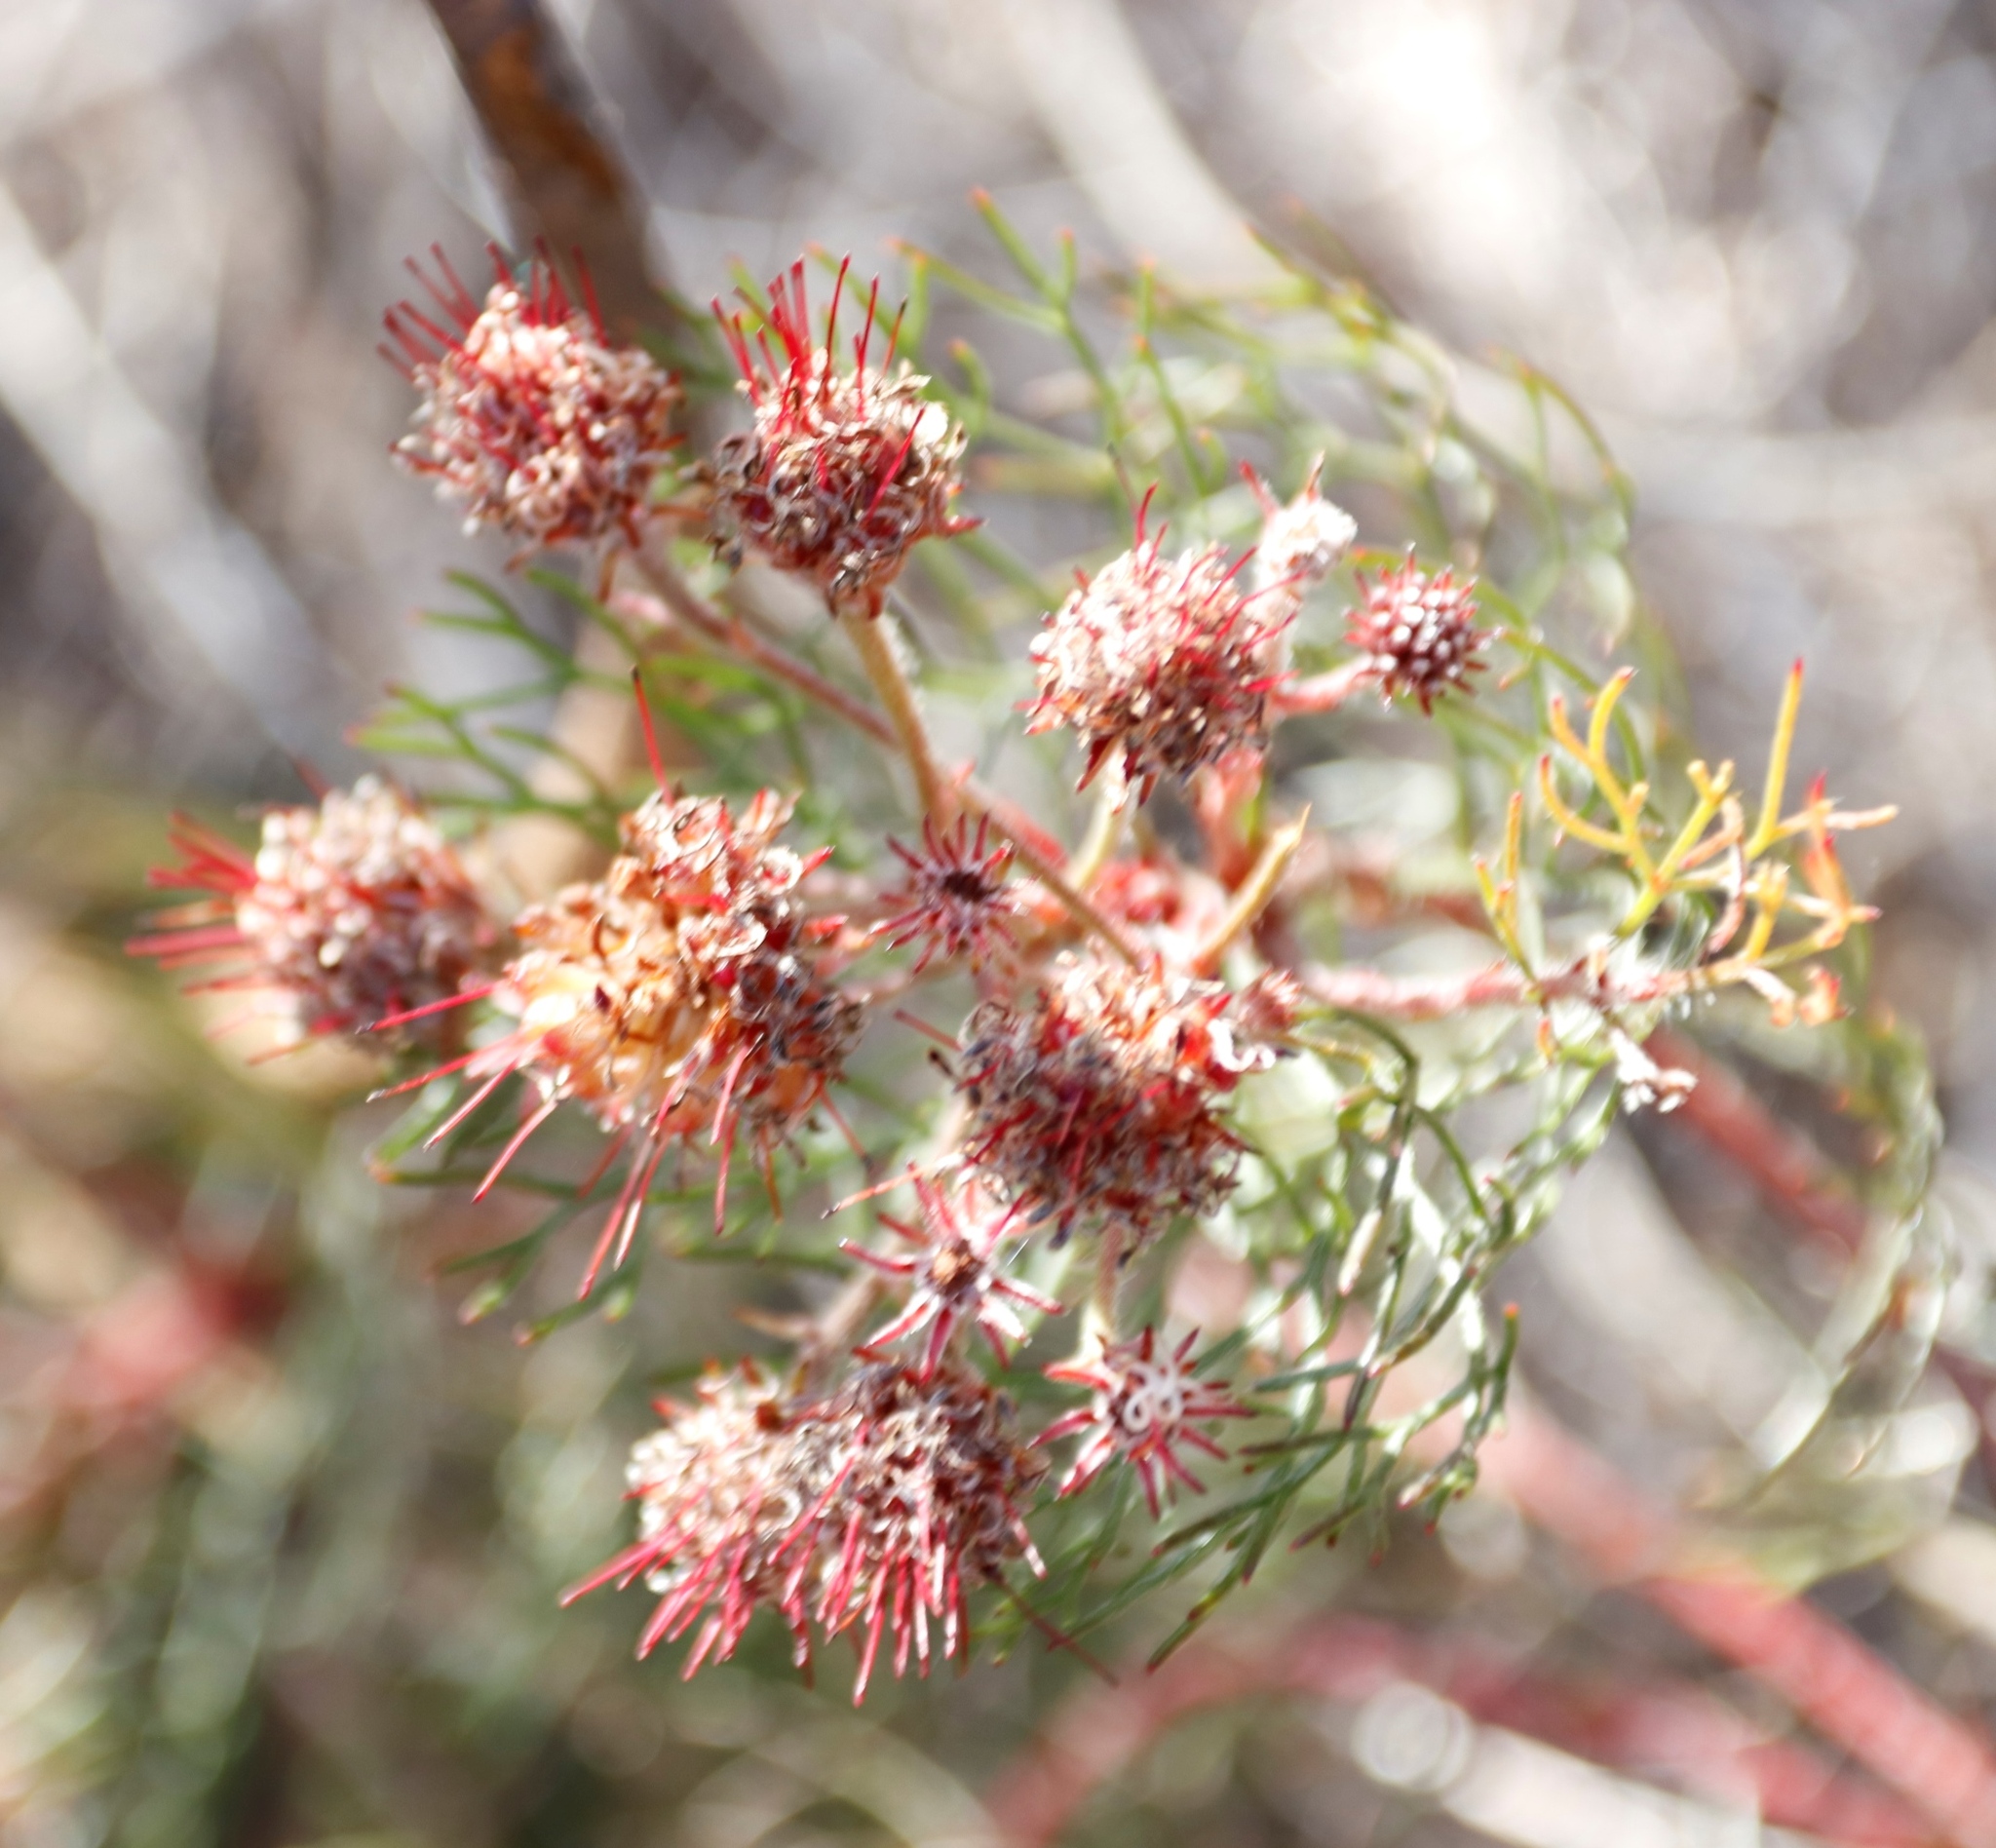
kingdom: Plantae
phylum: Tracheophyta
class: Magnoliopsida
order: Proteales
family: Proteaceae
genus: Serruria
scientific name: Serruria fasciflora
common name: Common pin spiderhead
